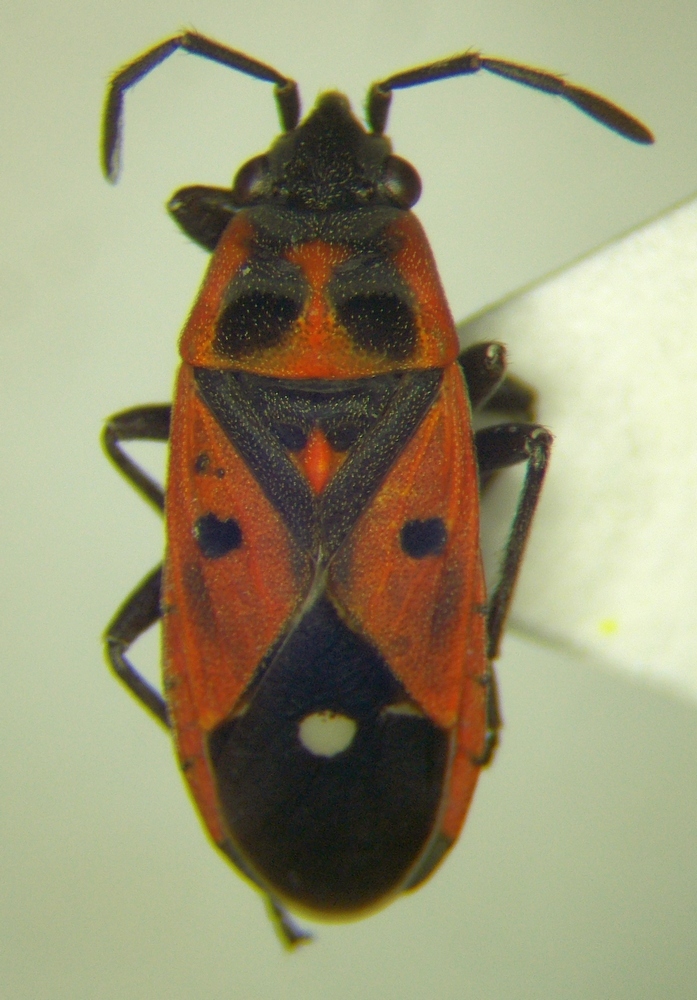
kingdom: Animalia
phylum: Arthropoda
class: Insecta
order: Hemiptera
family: Lygaeidae
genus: Melanocoryphus
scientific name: Melanocoryphus tristrami
